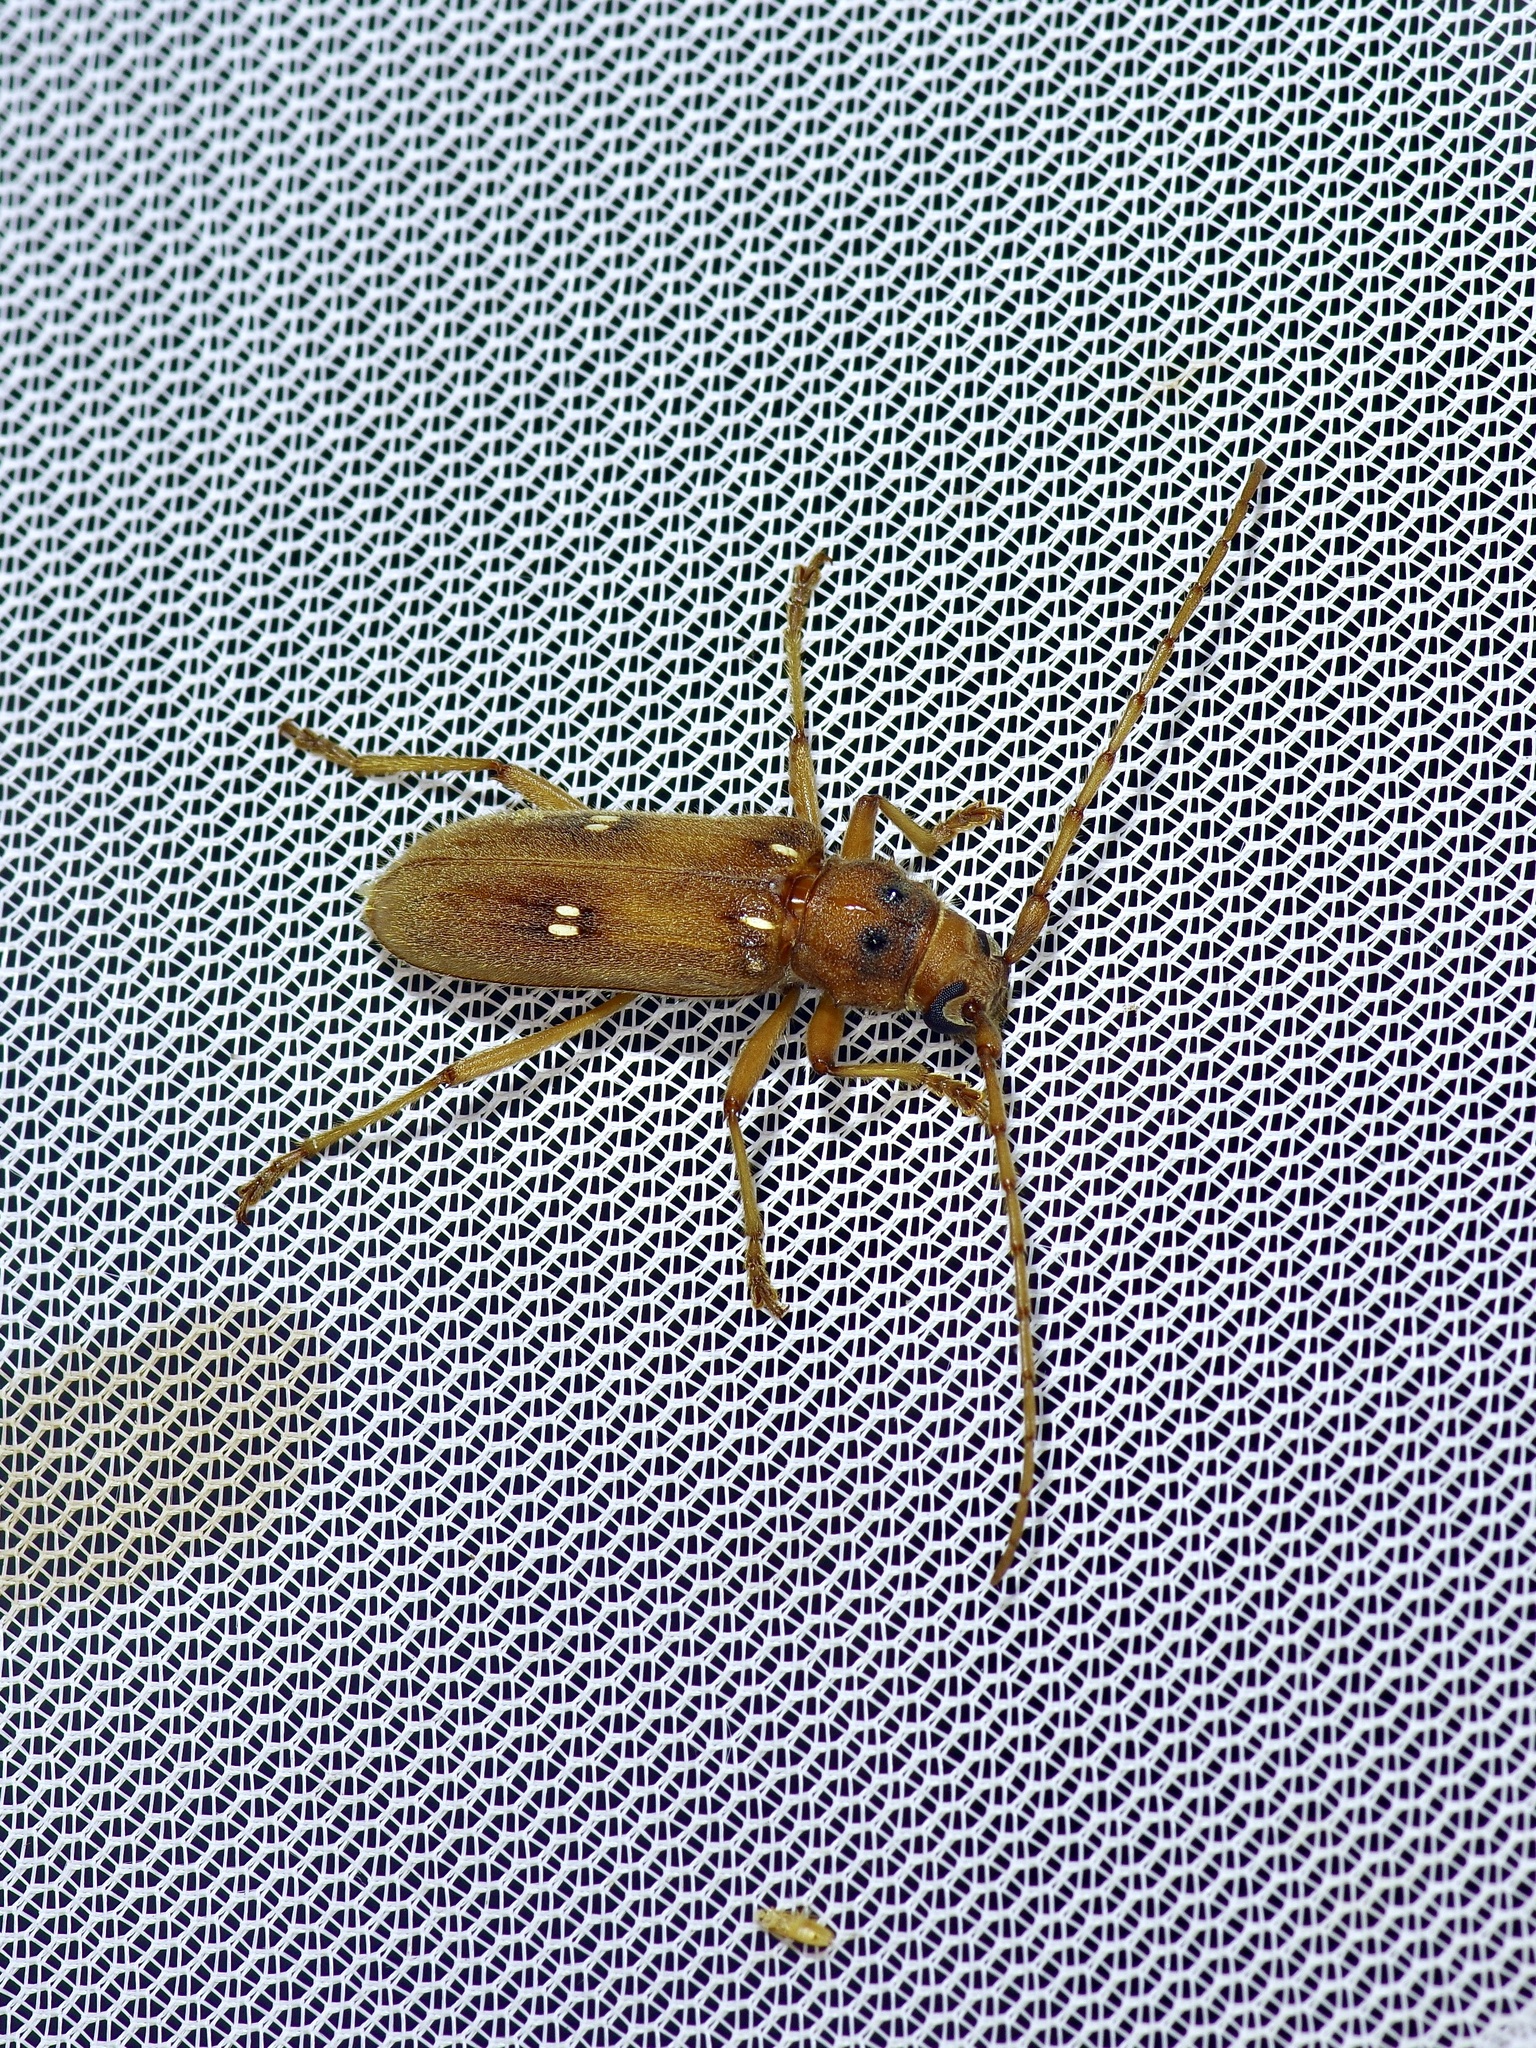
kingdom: Animalia
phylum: Arthropoda
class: Insecta
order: Coleoptera
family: Cerambycidae
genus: Eburia
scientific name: Eburia haldemani
